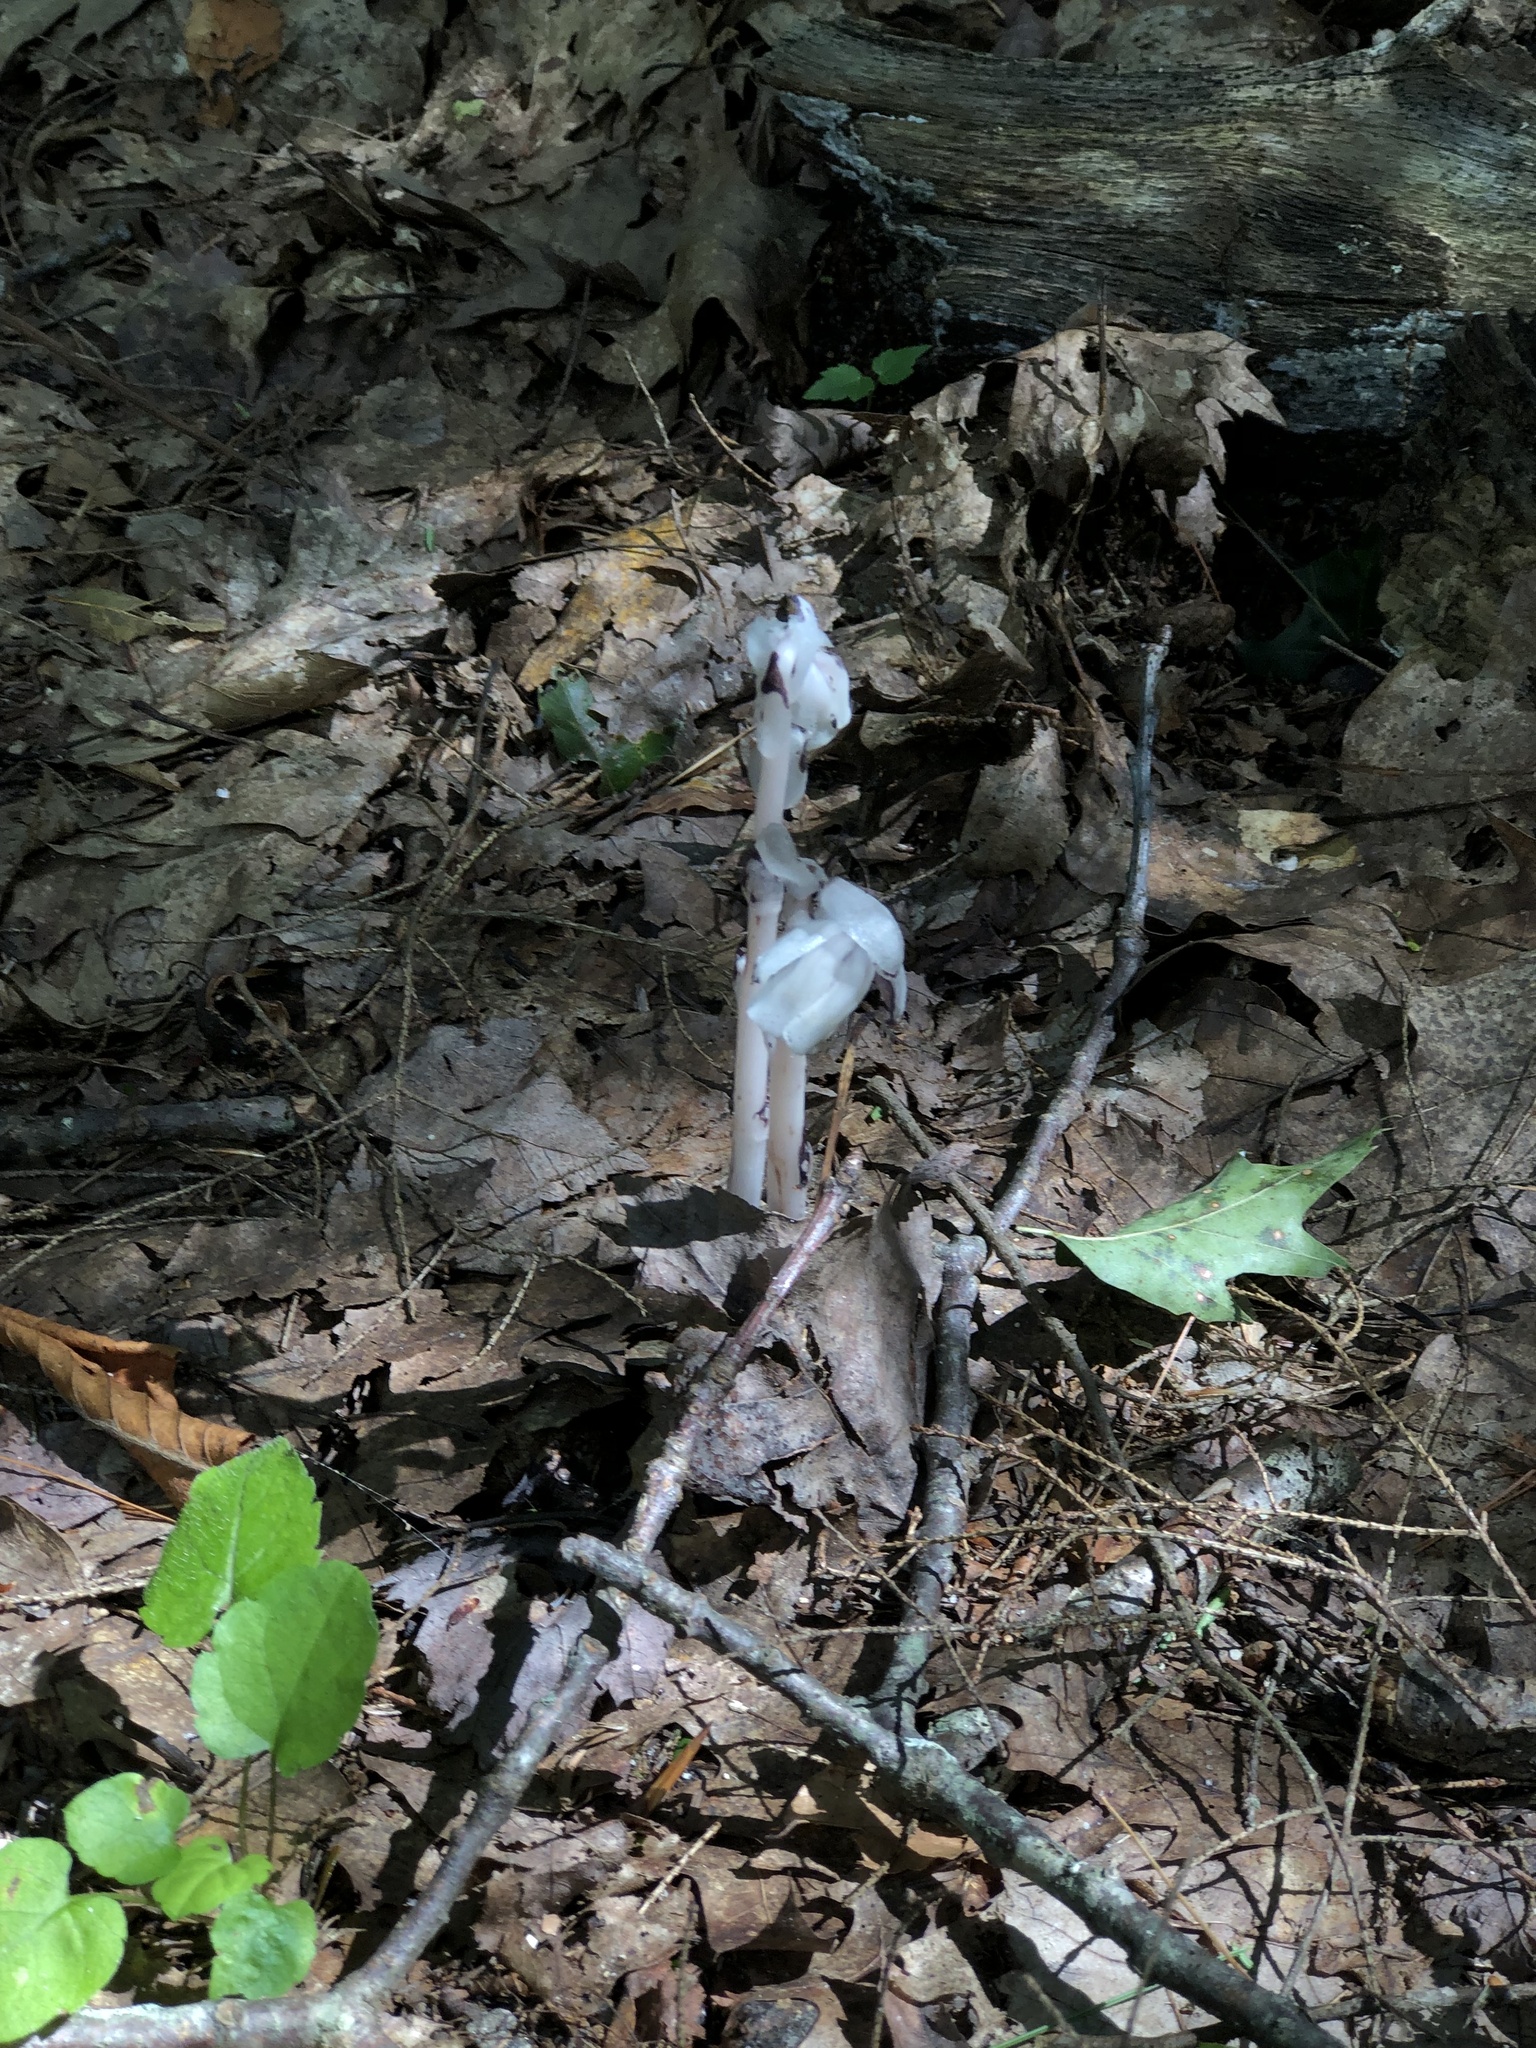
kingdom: Plantae
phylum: Tracheophyta
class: Magnoliopsida
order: Ericales
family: Ericaceae
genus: Monotropa
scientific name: Monotropa uniflora
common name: Convulsion root
